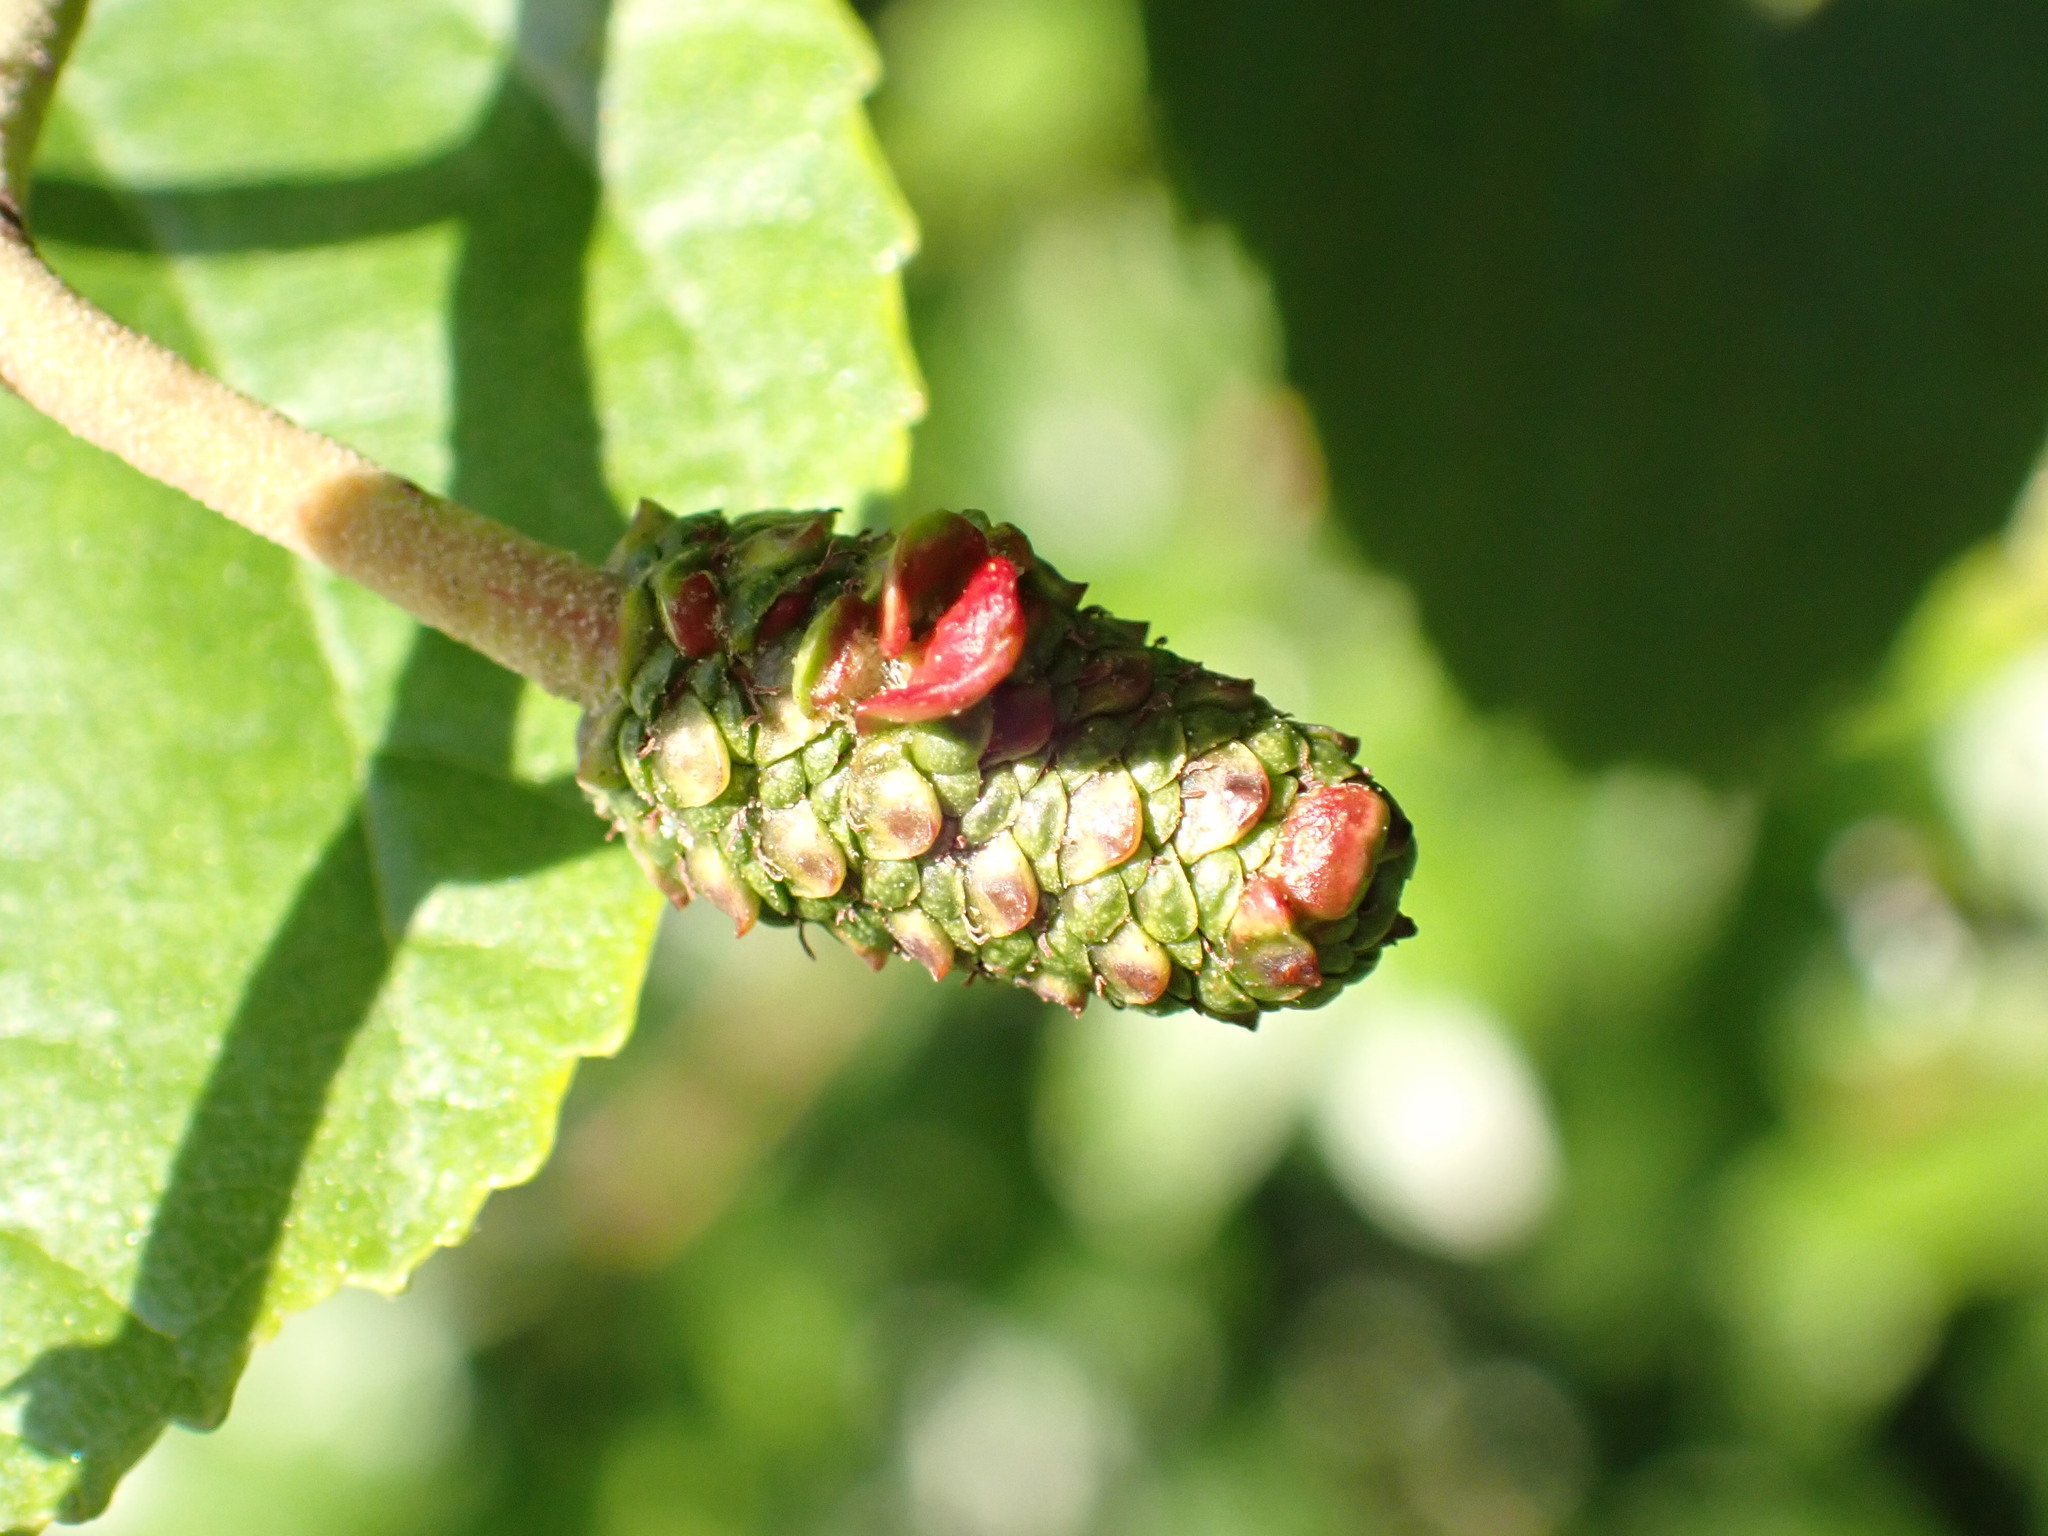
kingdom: Fungi
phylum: Ascomycota
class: Taphrinomycetes
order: Taphrinales
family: Taphrinaceae
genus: Taphrina
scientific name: Taphrina alni
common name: Alder tongue
